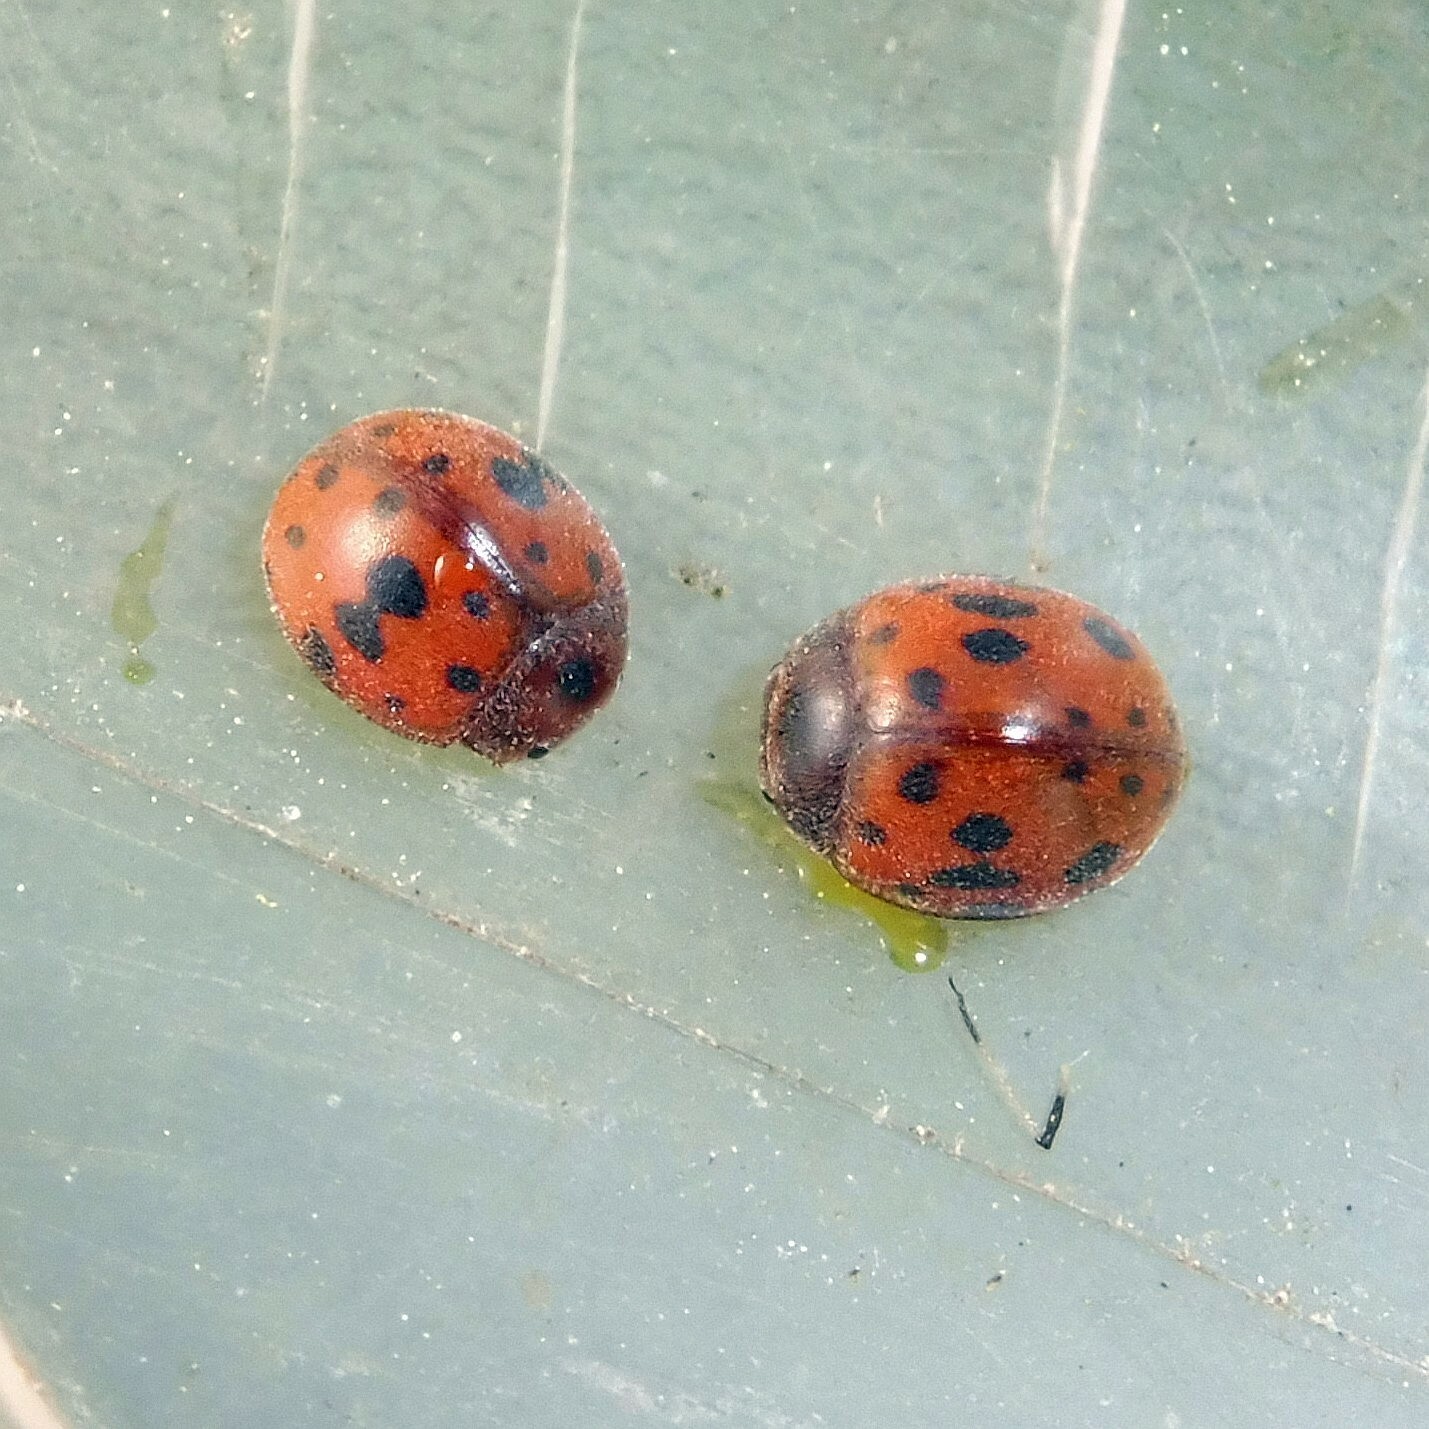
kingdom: Animalia
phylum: Arthropoda
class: Insecta
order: Coleoptera
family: Coccinellidae
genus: Subcoccinella
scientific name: Subcoccinella vigintiquatuorpunctata
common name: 24-spot ladybird
